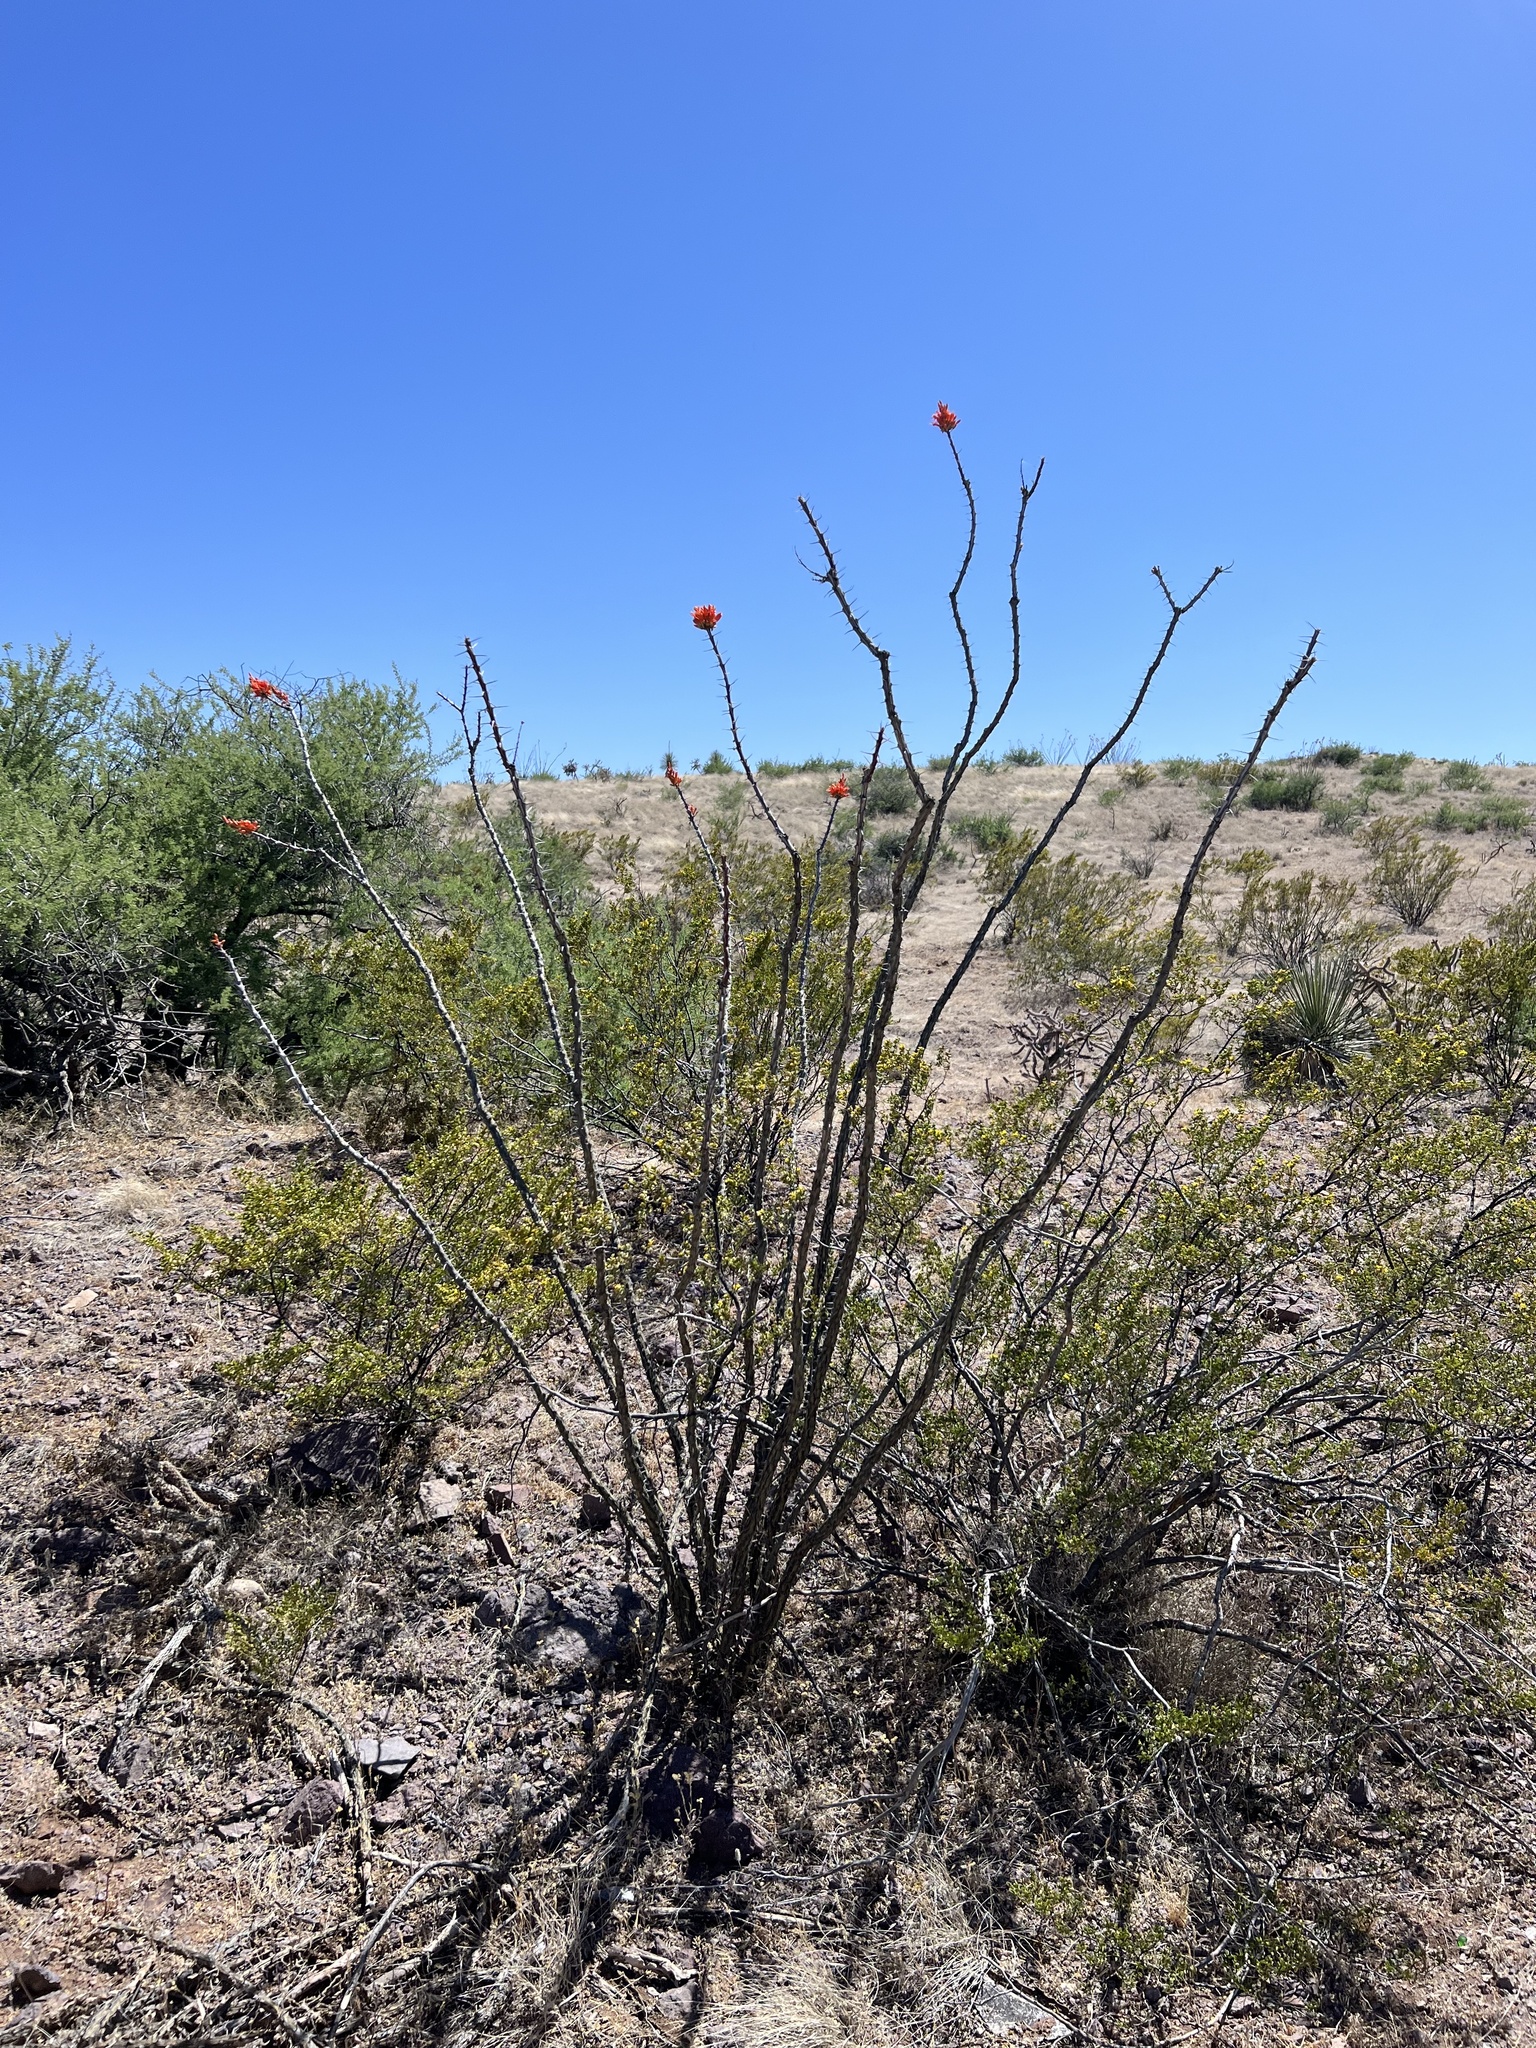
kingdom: Plantae
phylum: Tracheophyta
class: Magnoliopsida
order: Ericales
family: Fouquieriaceae
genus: Fouquieria
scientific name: Fouquieria splendens
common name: Vine-cactus
